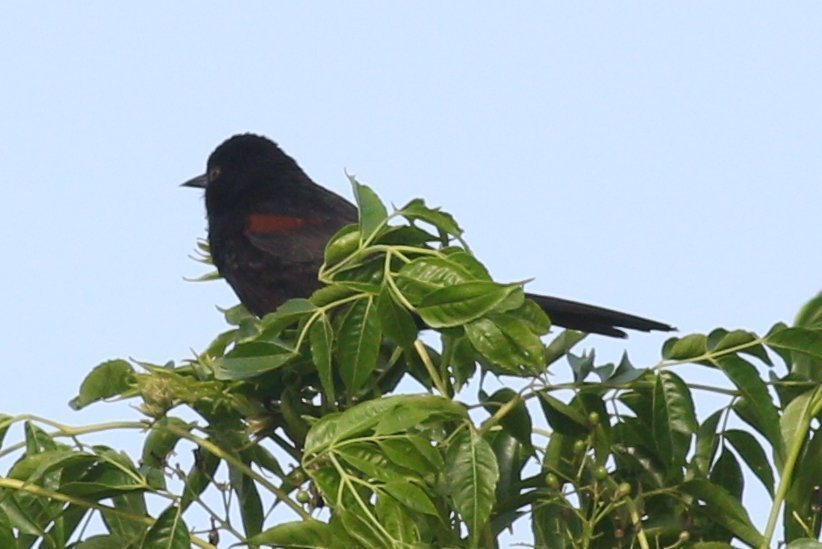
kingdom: Animalia
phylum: Chordata
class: Aves
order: Passeriformes
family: Icteridae
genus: Icterus
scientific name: Icterus cayanensis
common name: Epaulet oriole
